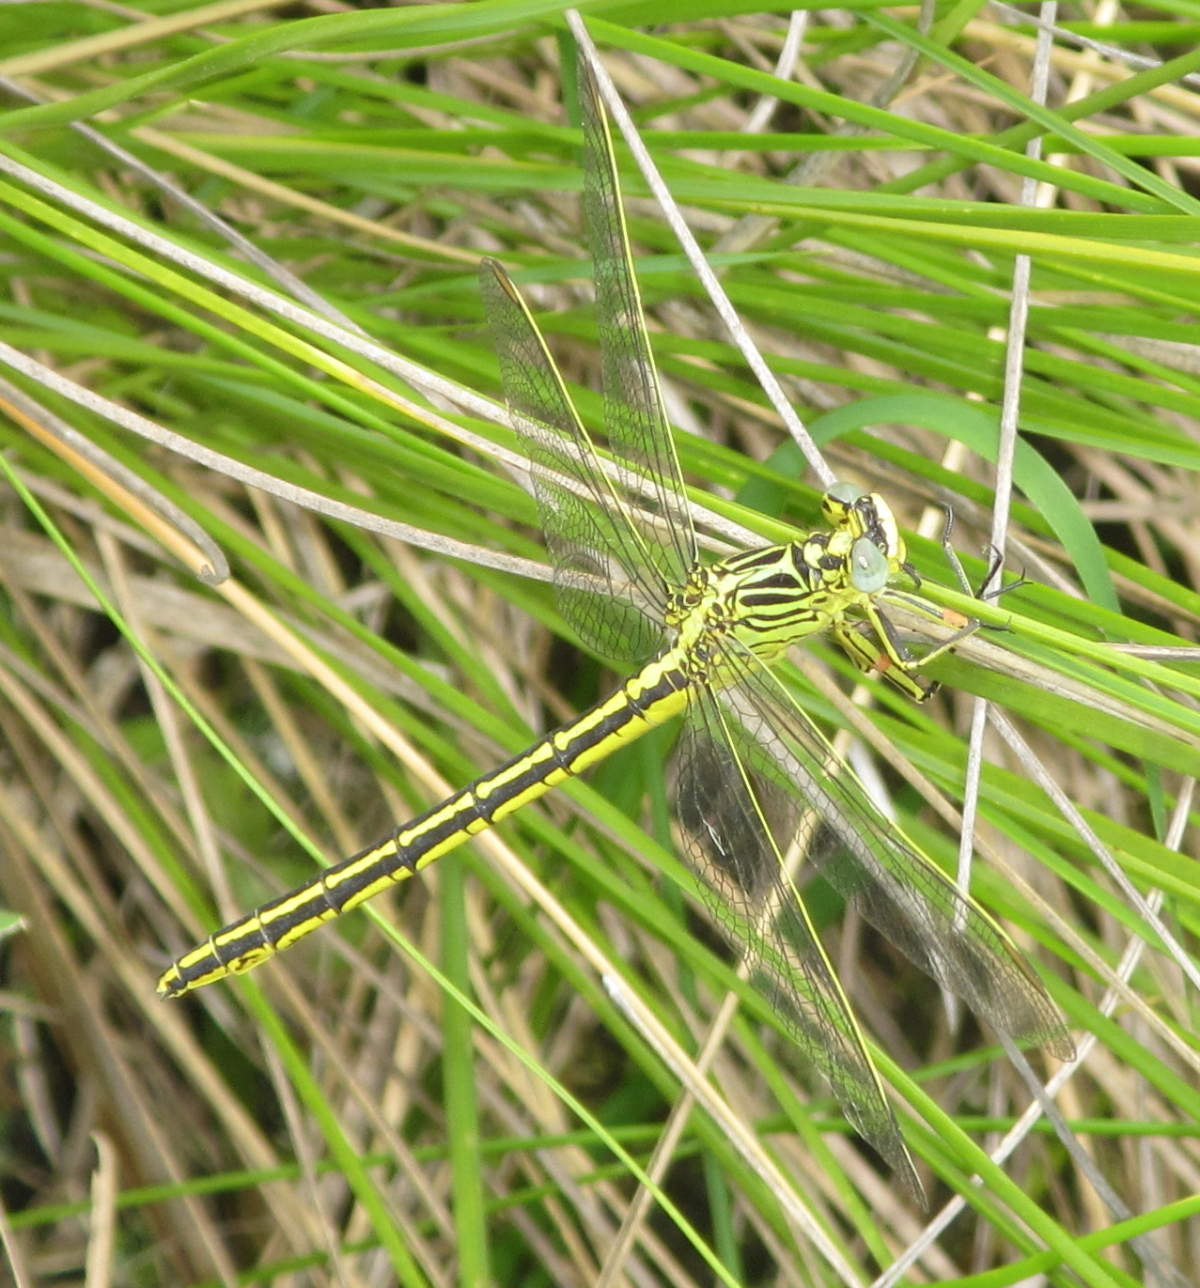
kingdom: Animalia
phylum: Arthropoda
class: Insecta
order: Odonata
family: Gomphidae
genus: Notogomphus
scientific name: Notogomphus praetorius
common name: Southern yellowjack
